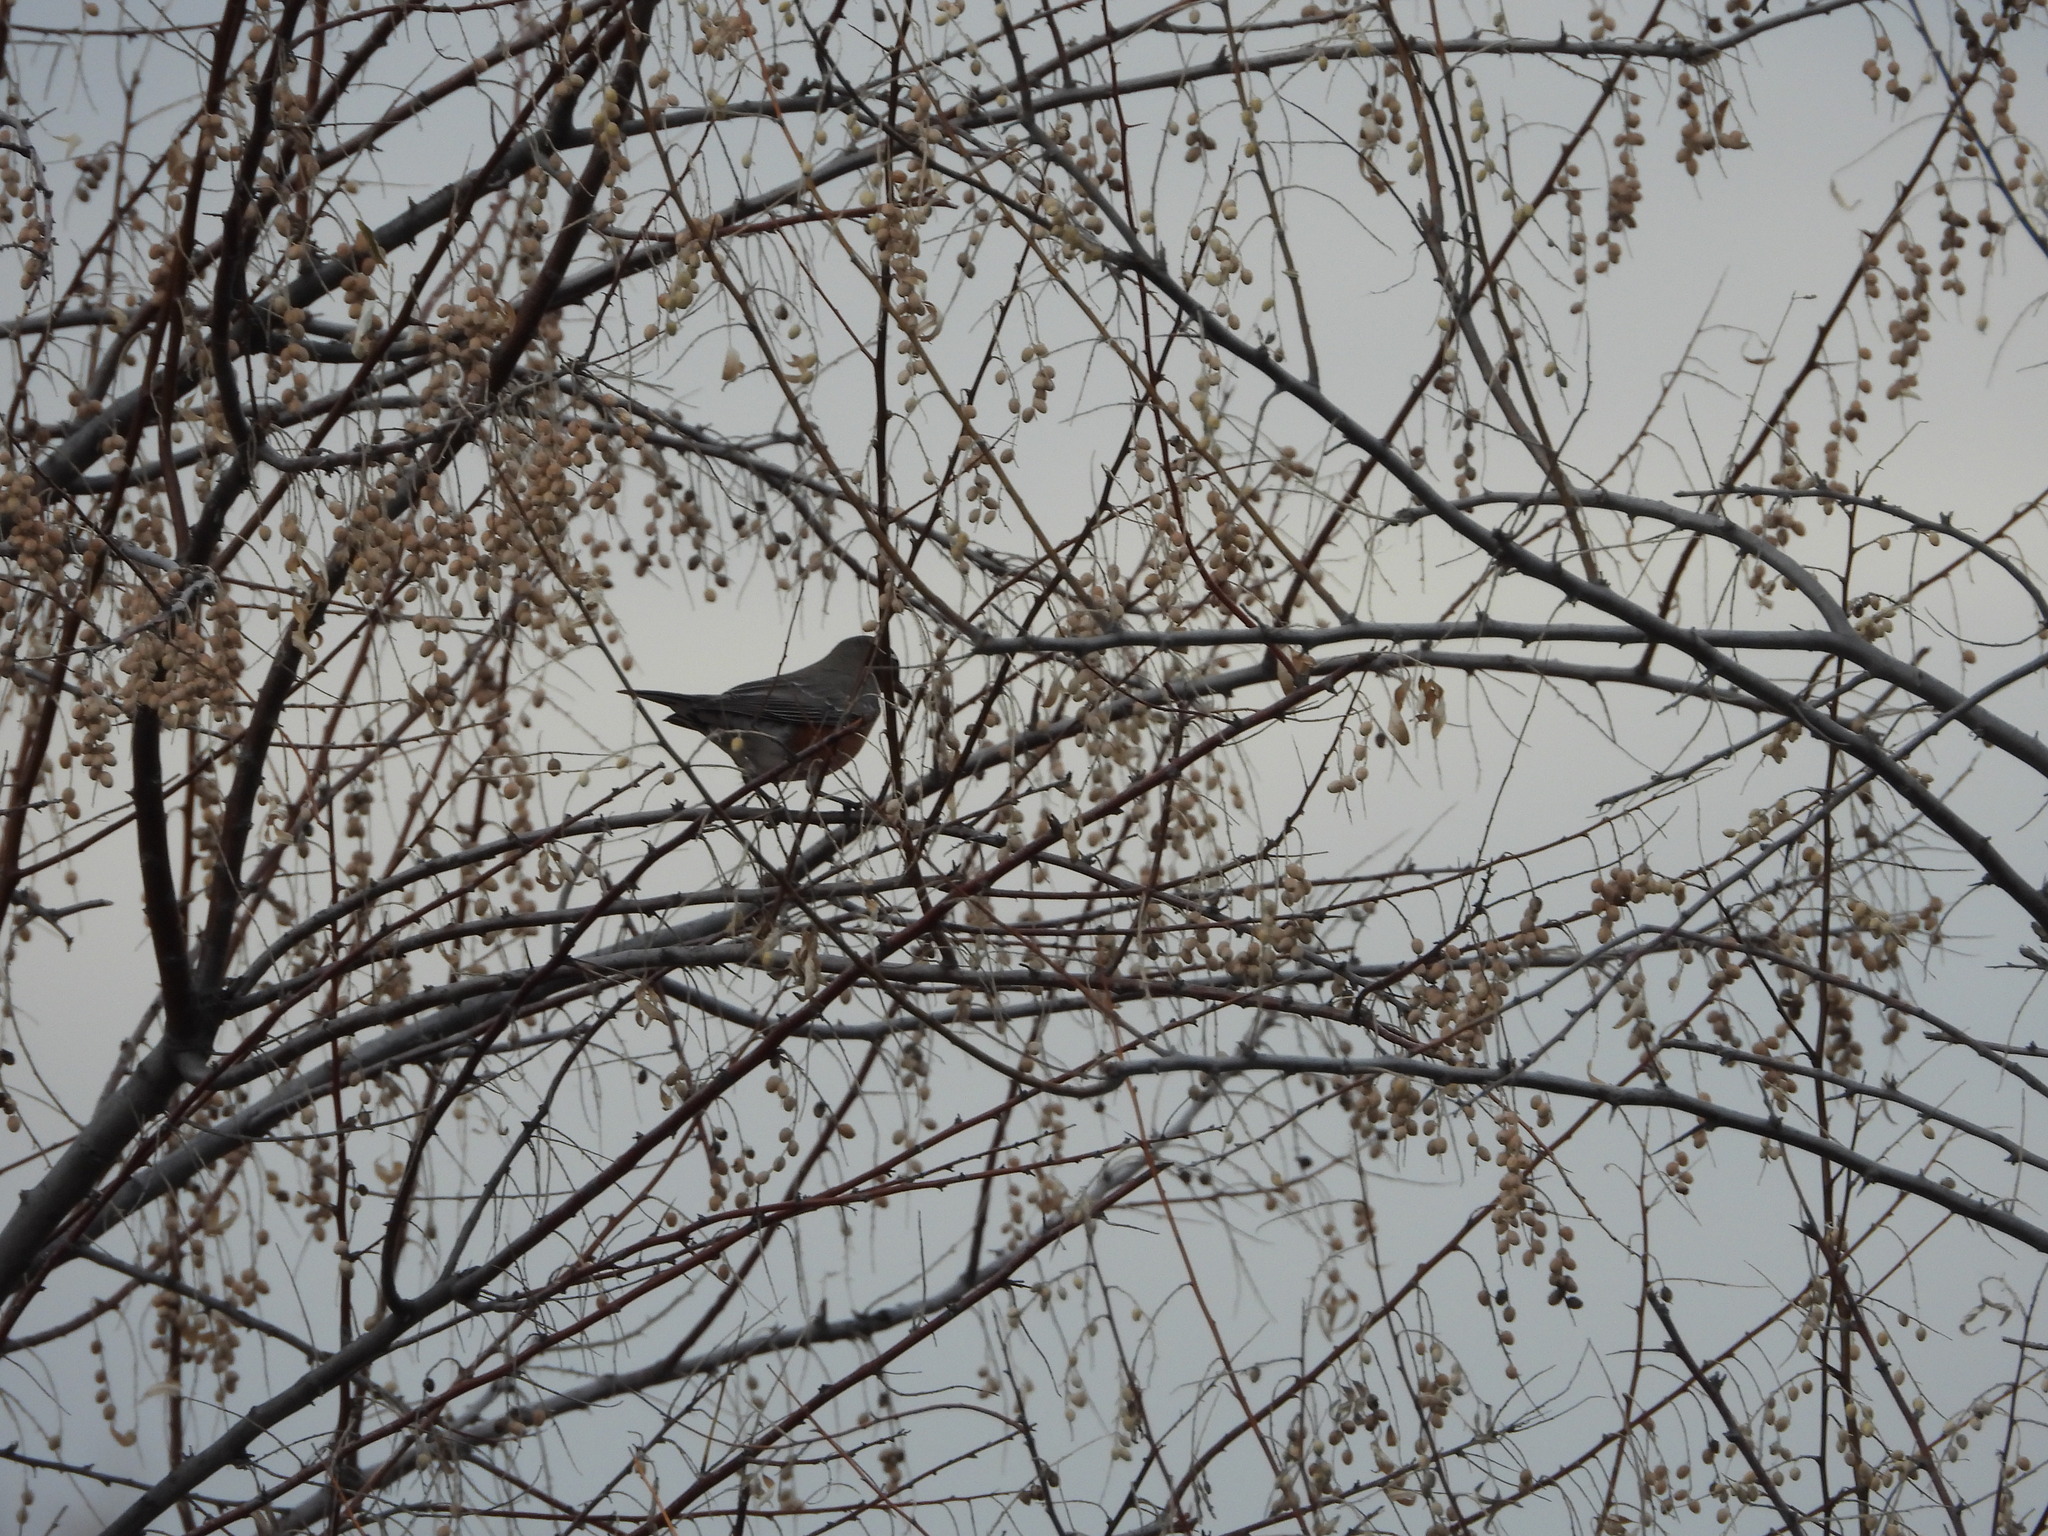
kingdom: Animalia
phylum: Chordata
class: Aves
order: Passeriformes
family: Turdidae
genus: Turdus
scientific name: Turdus migratorius
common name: American robin
